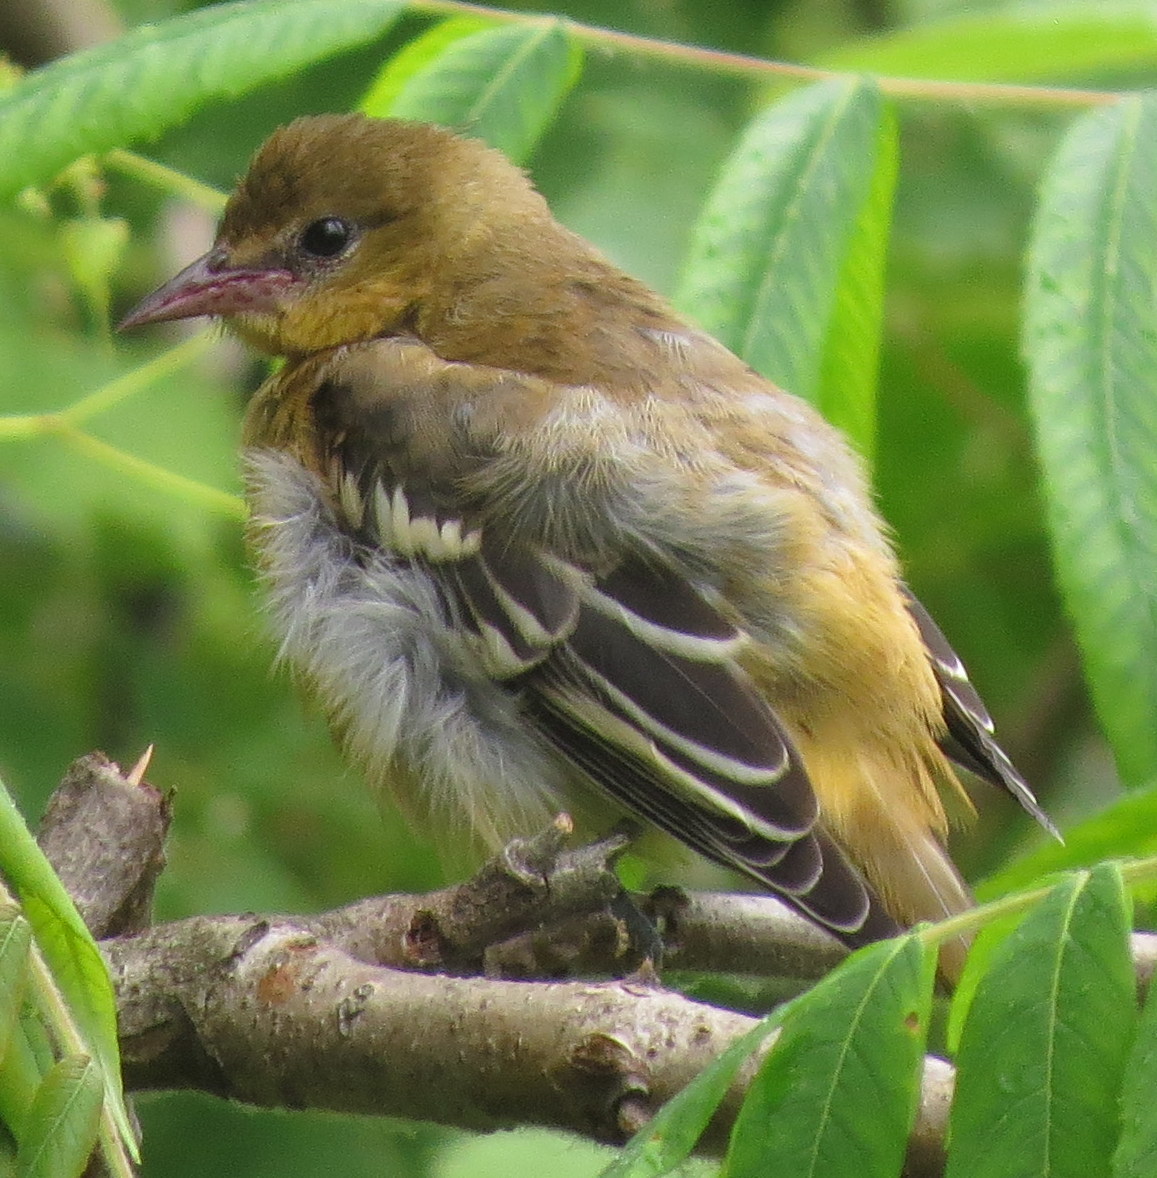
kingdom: Animalia
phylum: Chordata
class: Aves
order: Passeriformes
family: Icteridae
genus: Icterus
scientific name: Icterus galbula
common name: Baltimore oriole
